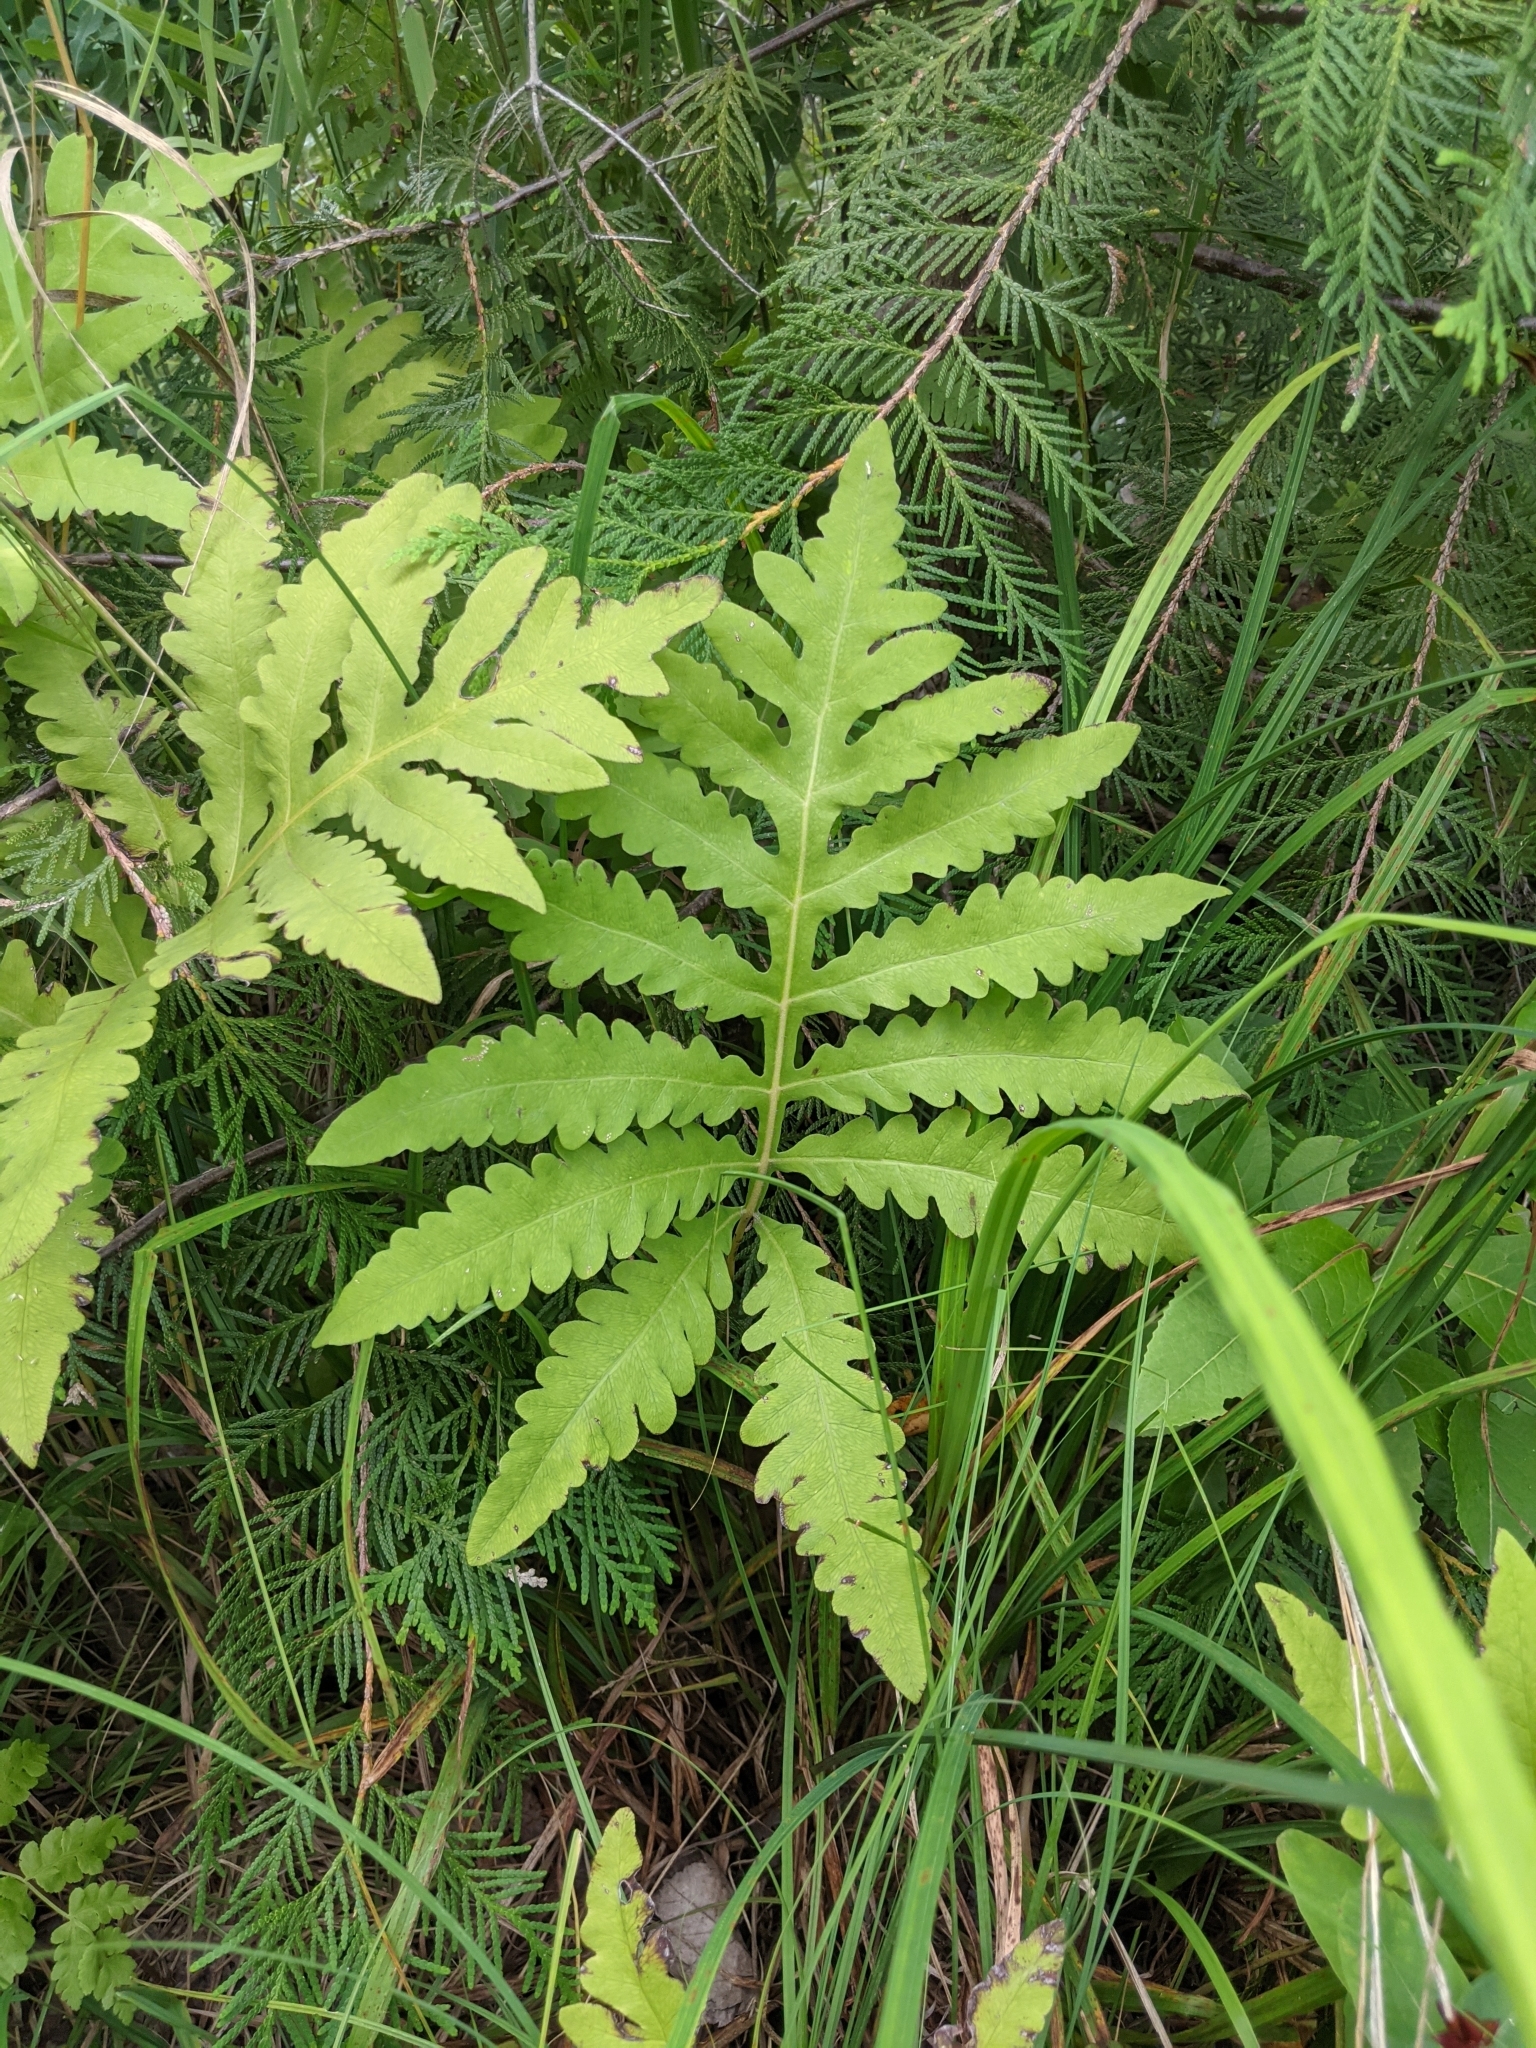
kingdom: Plantae
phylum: Tracheophyta
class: Polypodiopsida
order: Polypodiales
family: Onocleaceae
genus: Onoclea
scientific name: Onoclea sensibilis
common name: Sensitive fern
